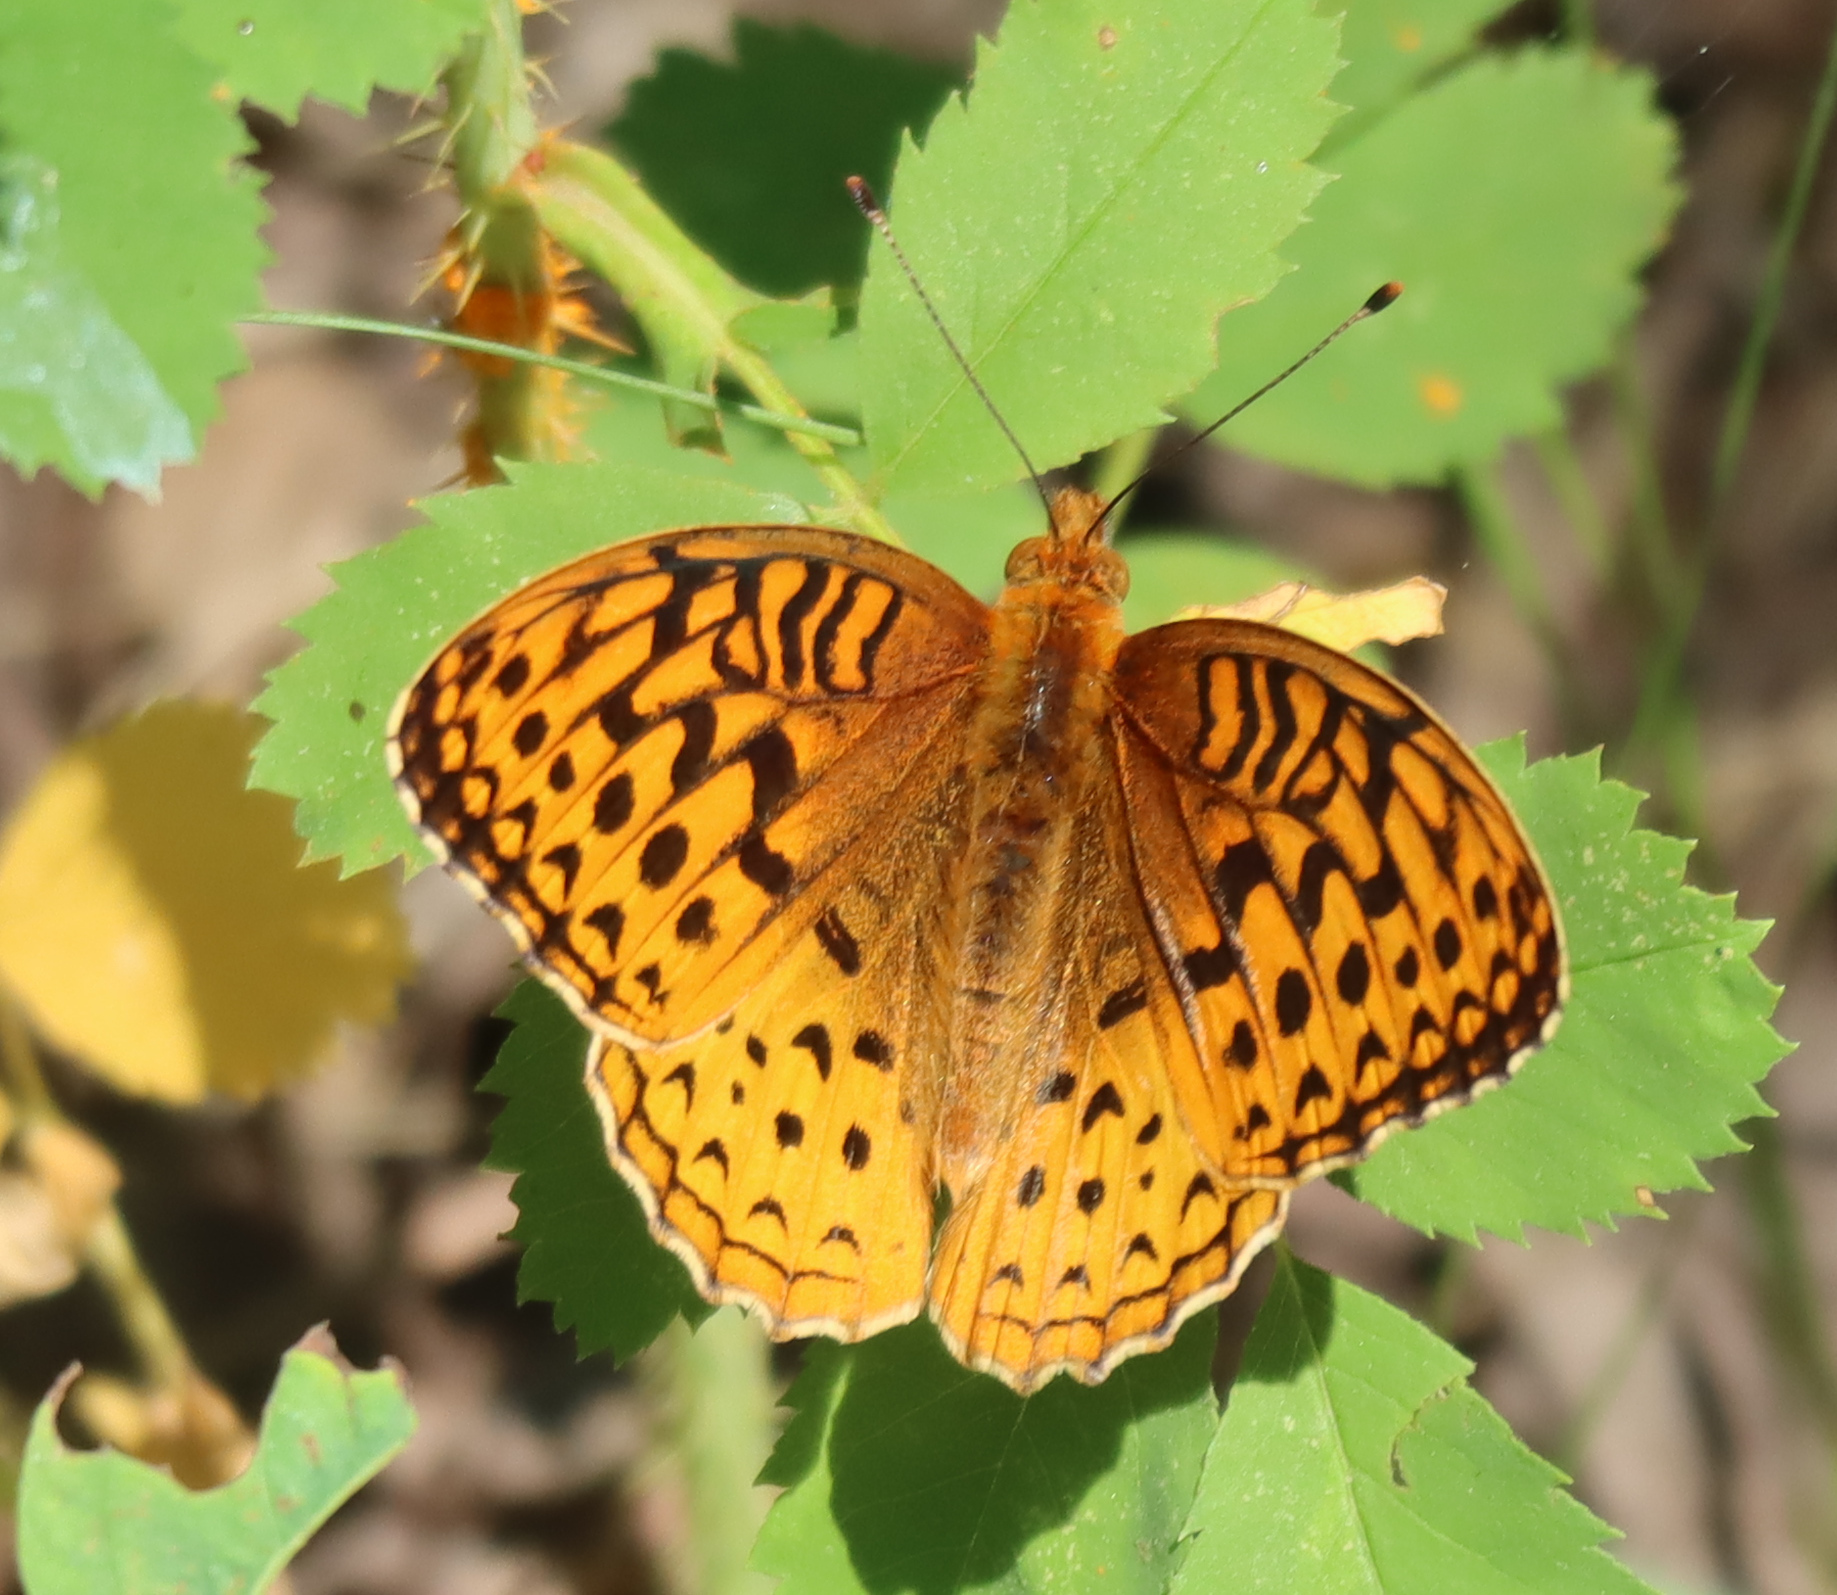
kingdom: Animalia
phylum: Arthropoda
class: Insecta
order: Lepidoptera
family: Nymphalidae
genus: Speyeria
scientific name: Speyeria cybele
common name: Great spangled fritillary
